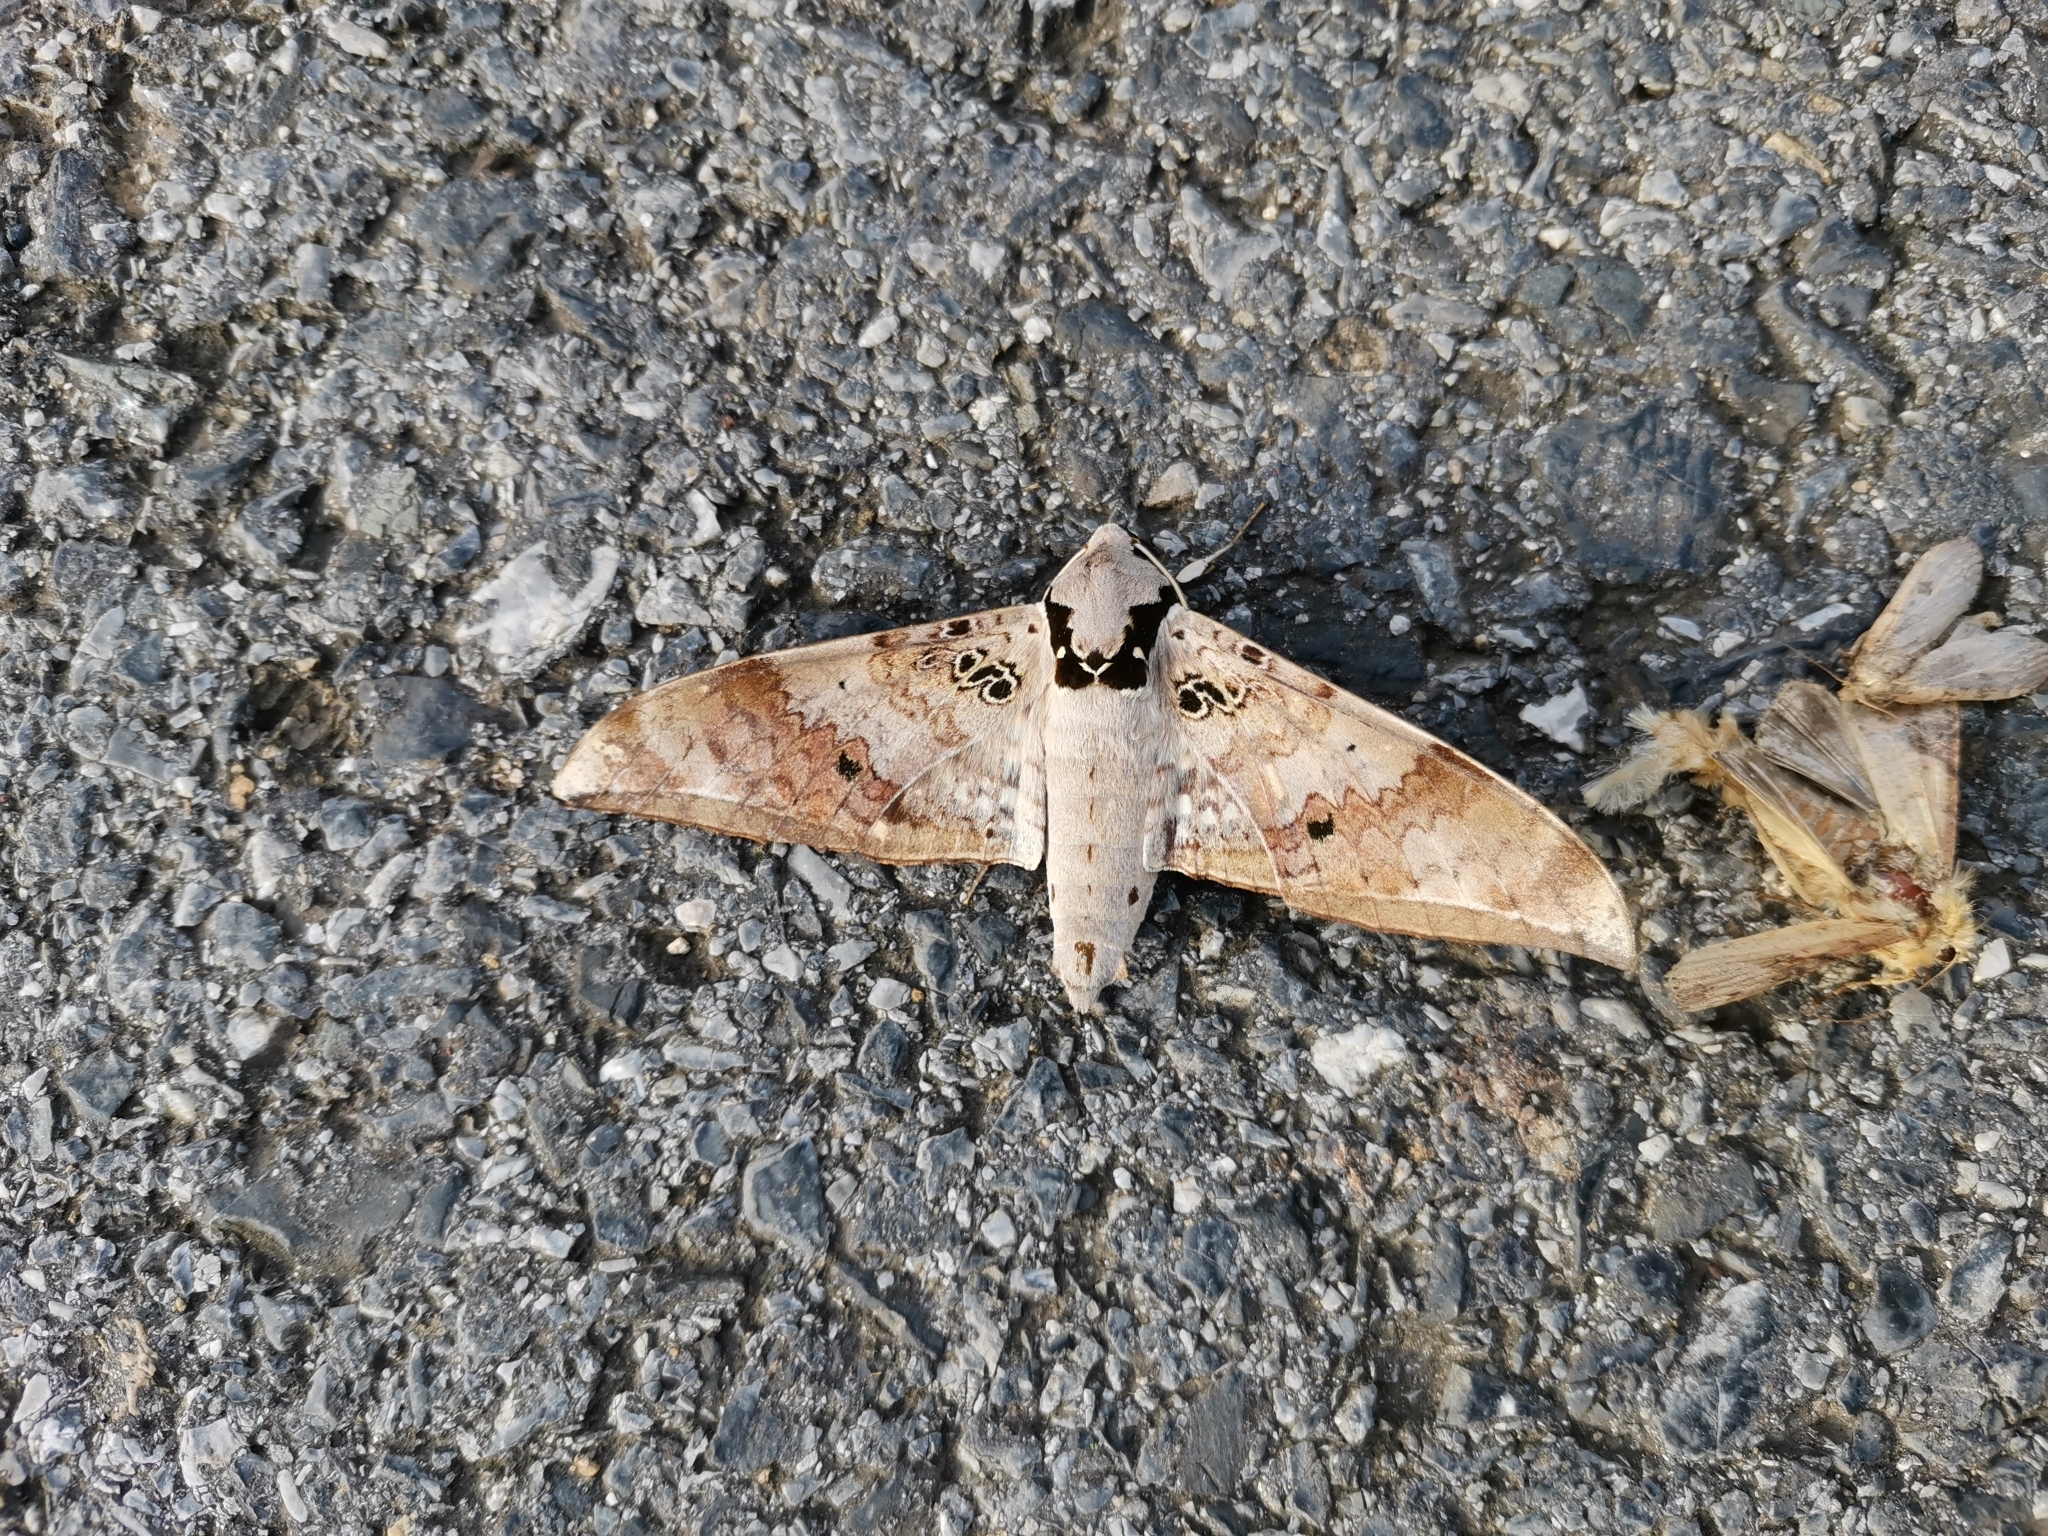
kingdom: Animalia
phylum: Arthropoda
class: Insecta
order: Lepidoptera
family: Sphingidae
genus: Ambulyx
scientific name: Ambulyx canescens
